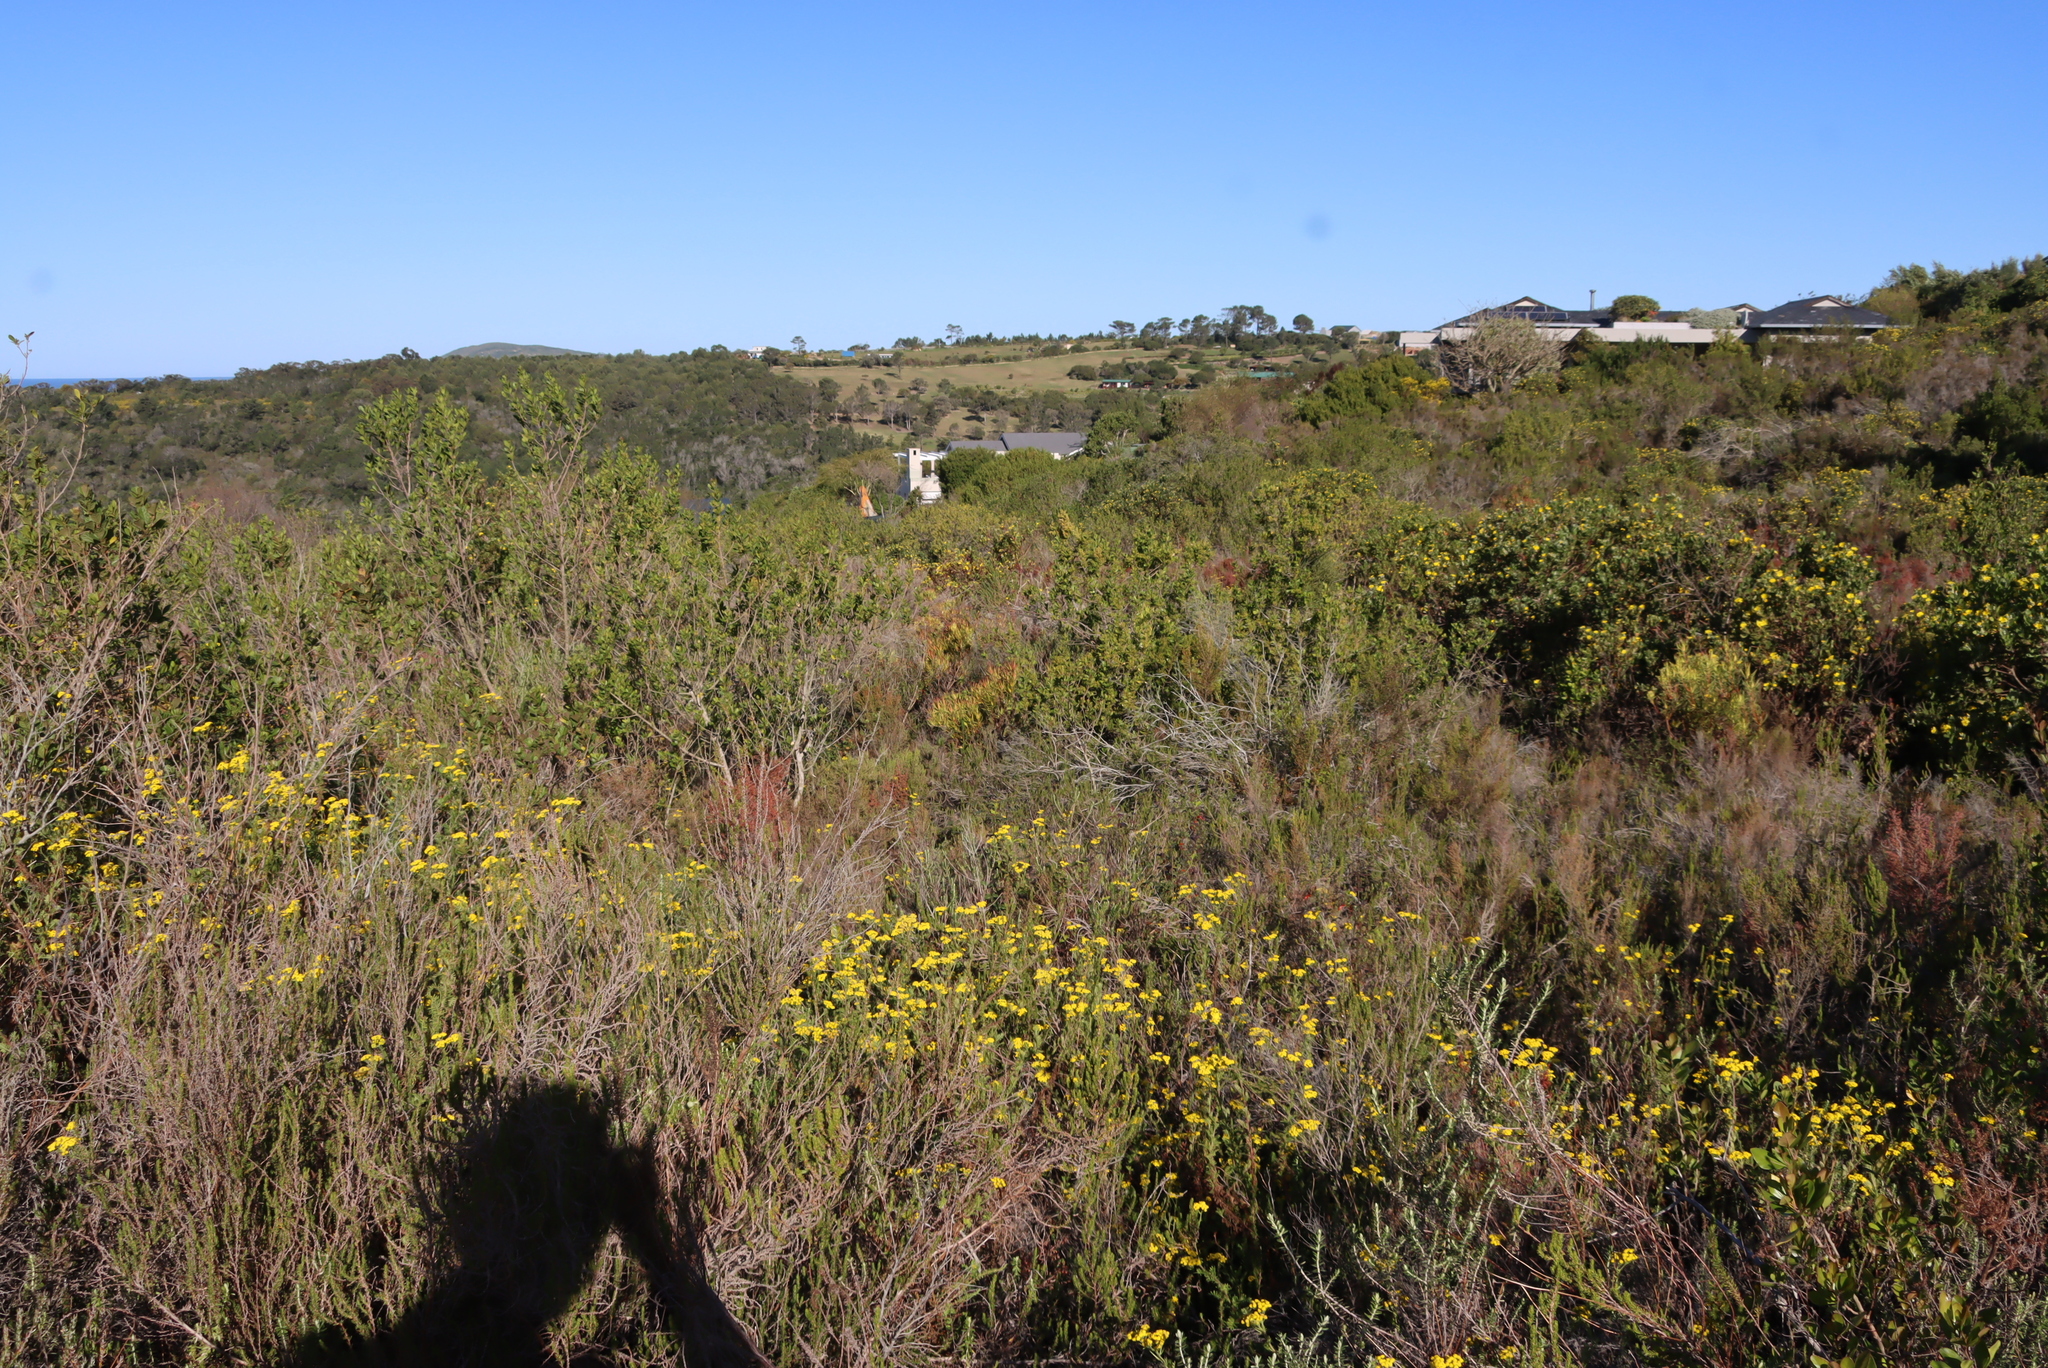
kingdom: Plantae
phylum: Tracheophyta
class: Magnoliopsida
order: Proteales
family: Proteaceae
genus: Leucadendron
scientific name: Leucadendron salignum
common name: Common sunshine conebush
